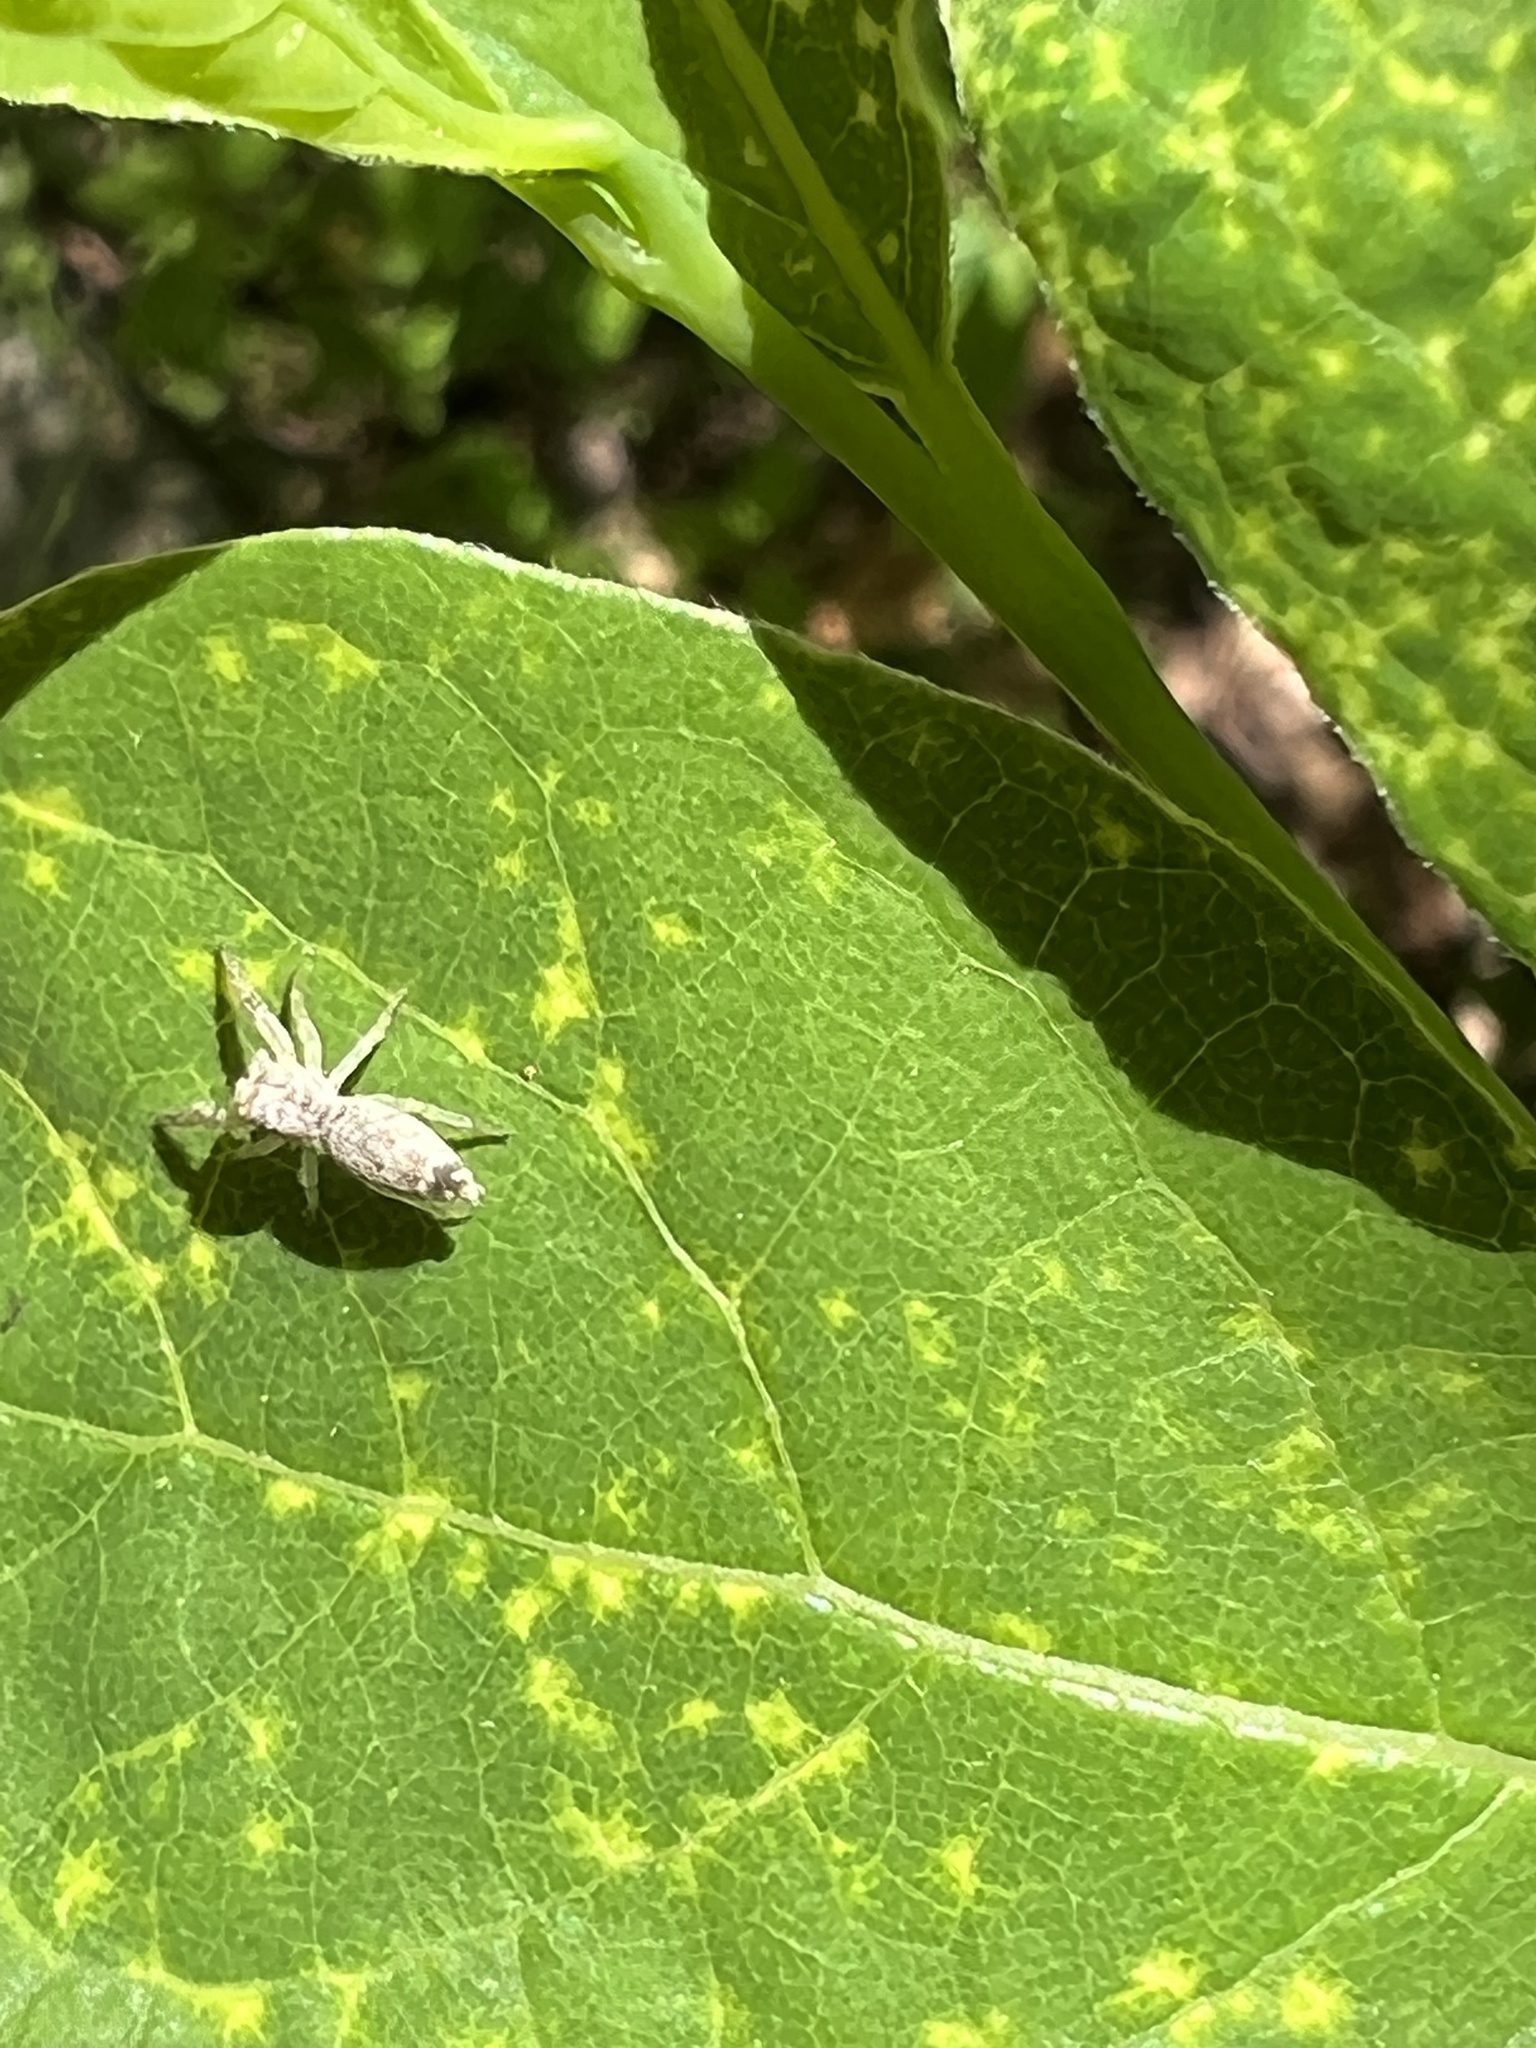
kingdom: Animalia
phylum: Arthropoda
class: Arachnida
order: Araneae
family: Salticidae
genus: Hentzia
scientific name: Hentzia mitrata
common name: White-jawed jumping spider
